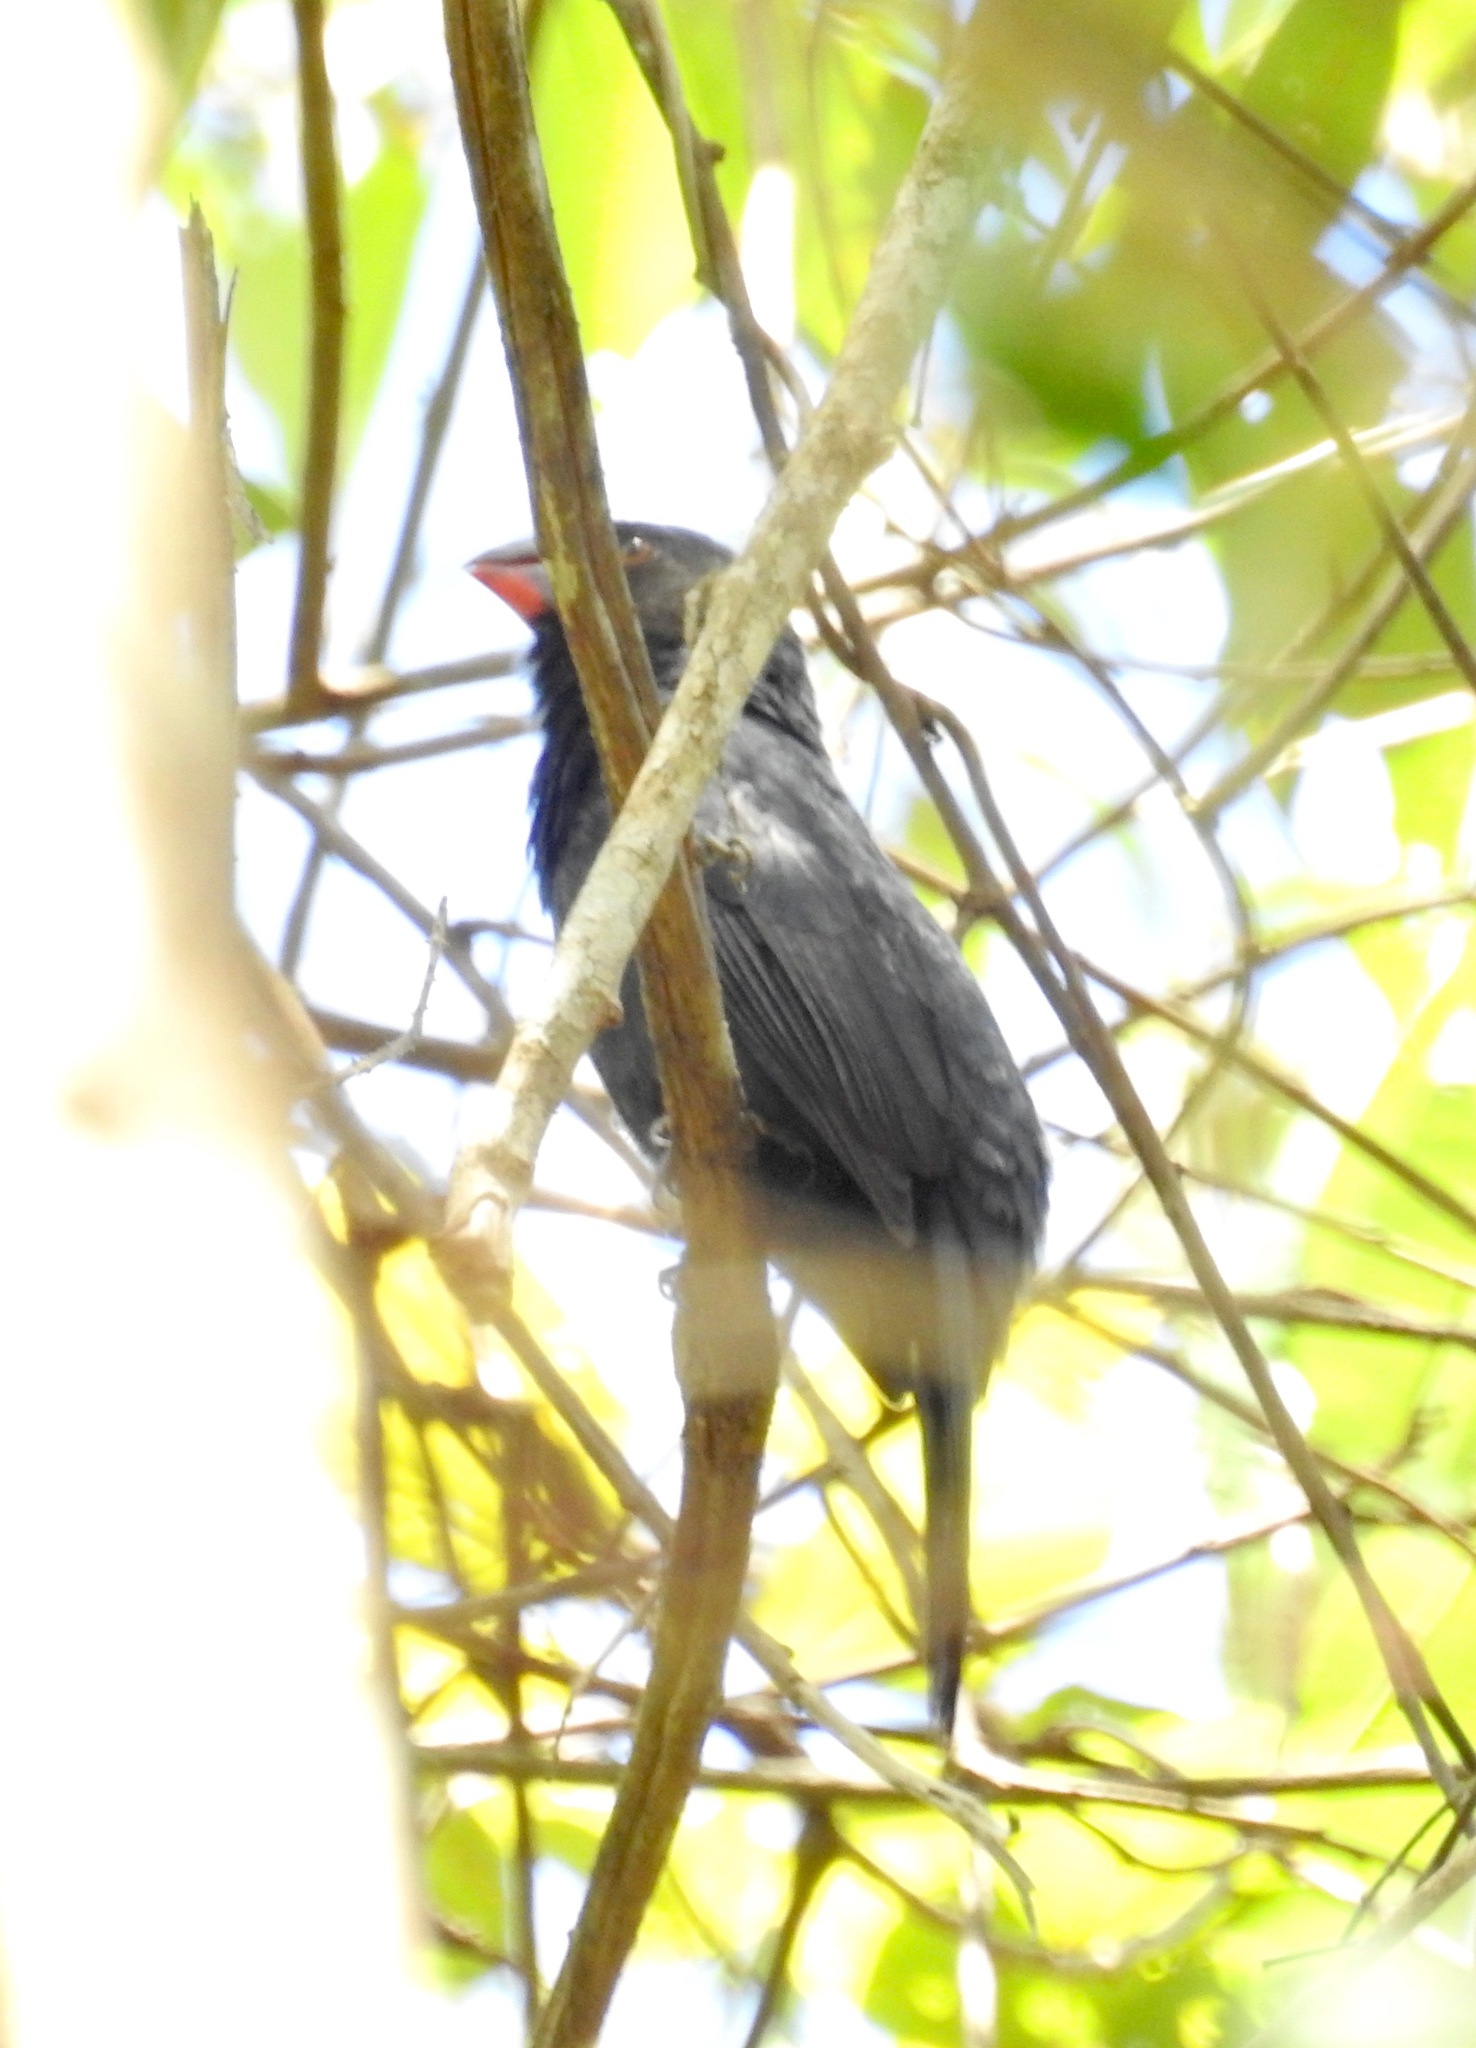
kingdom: Animalia
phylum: Chordata
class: Aves
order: Passeriformes
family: Thraupidae
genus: Saltator
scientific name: Saltator fuliginosus
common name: Black-throated grosbeak
